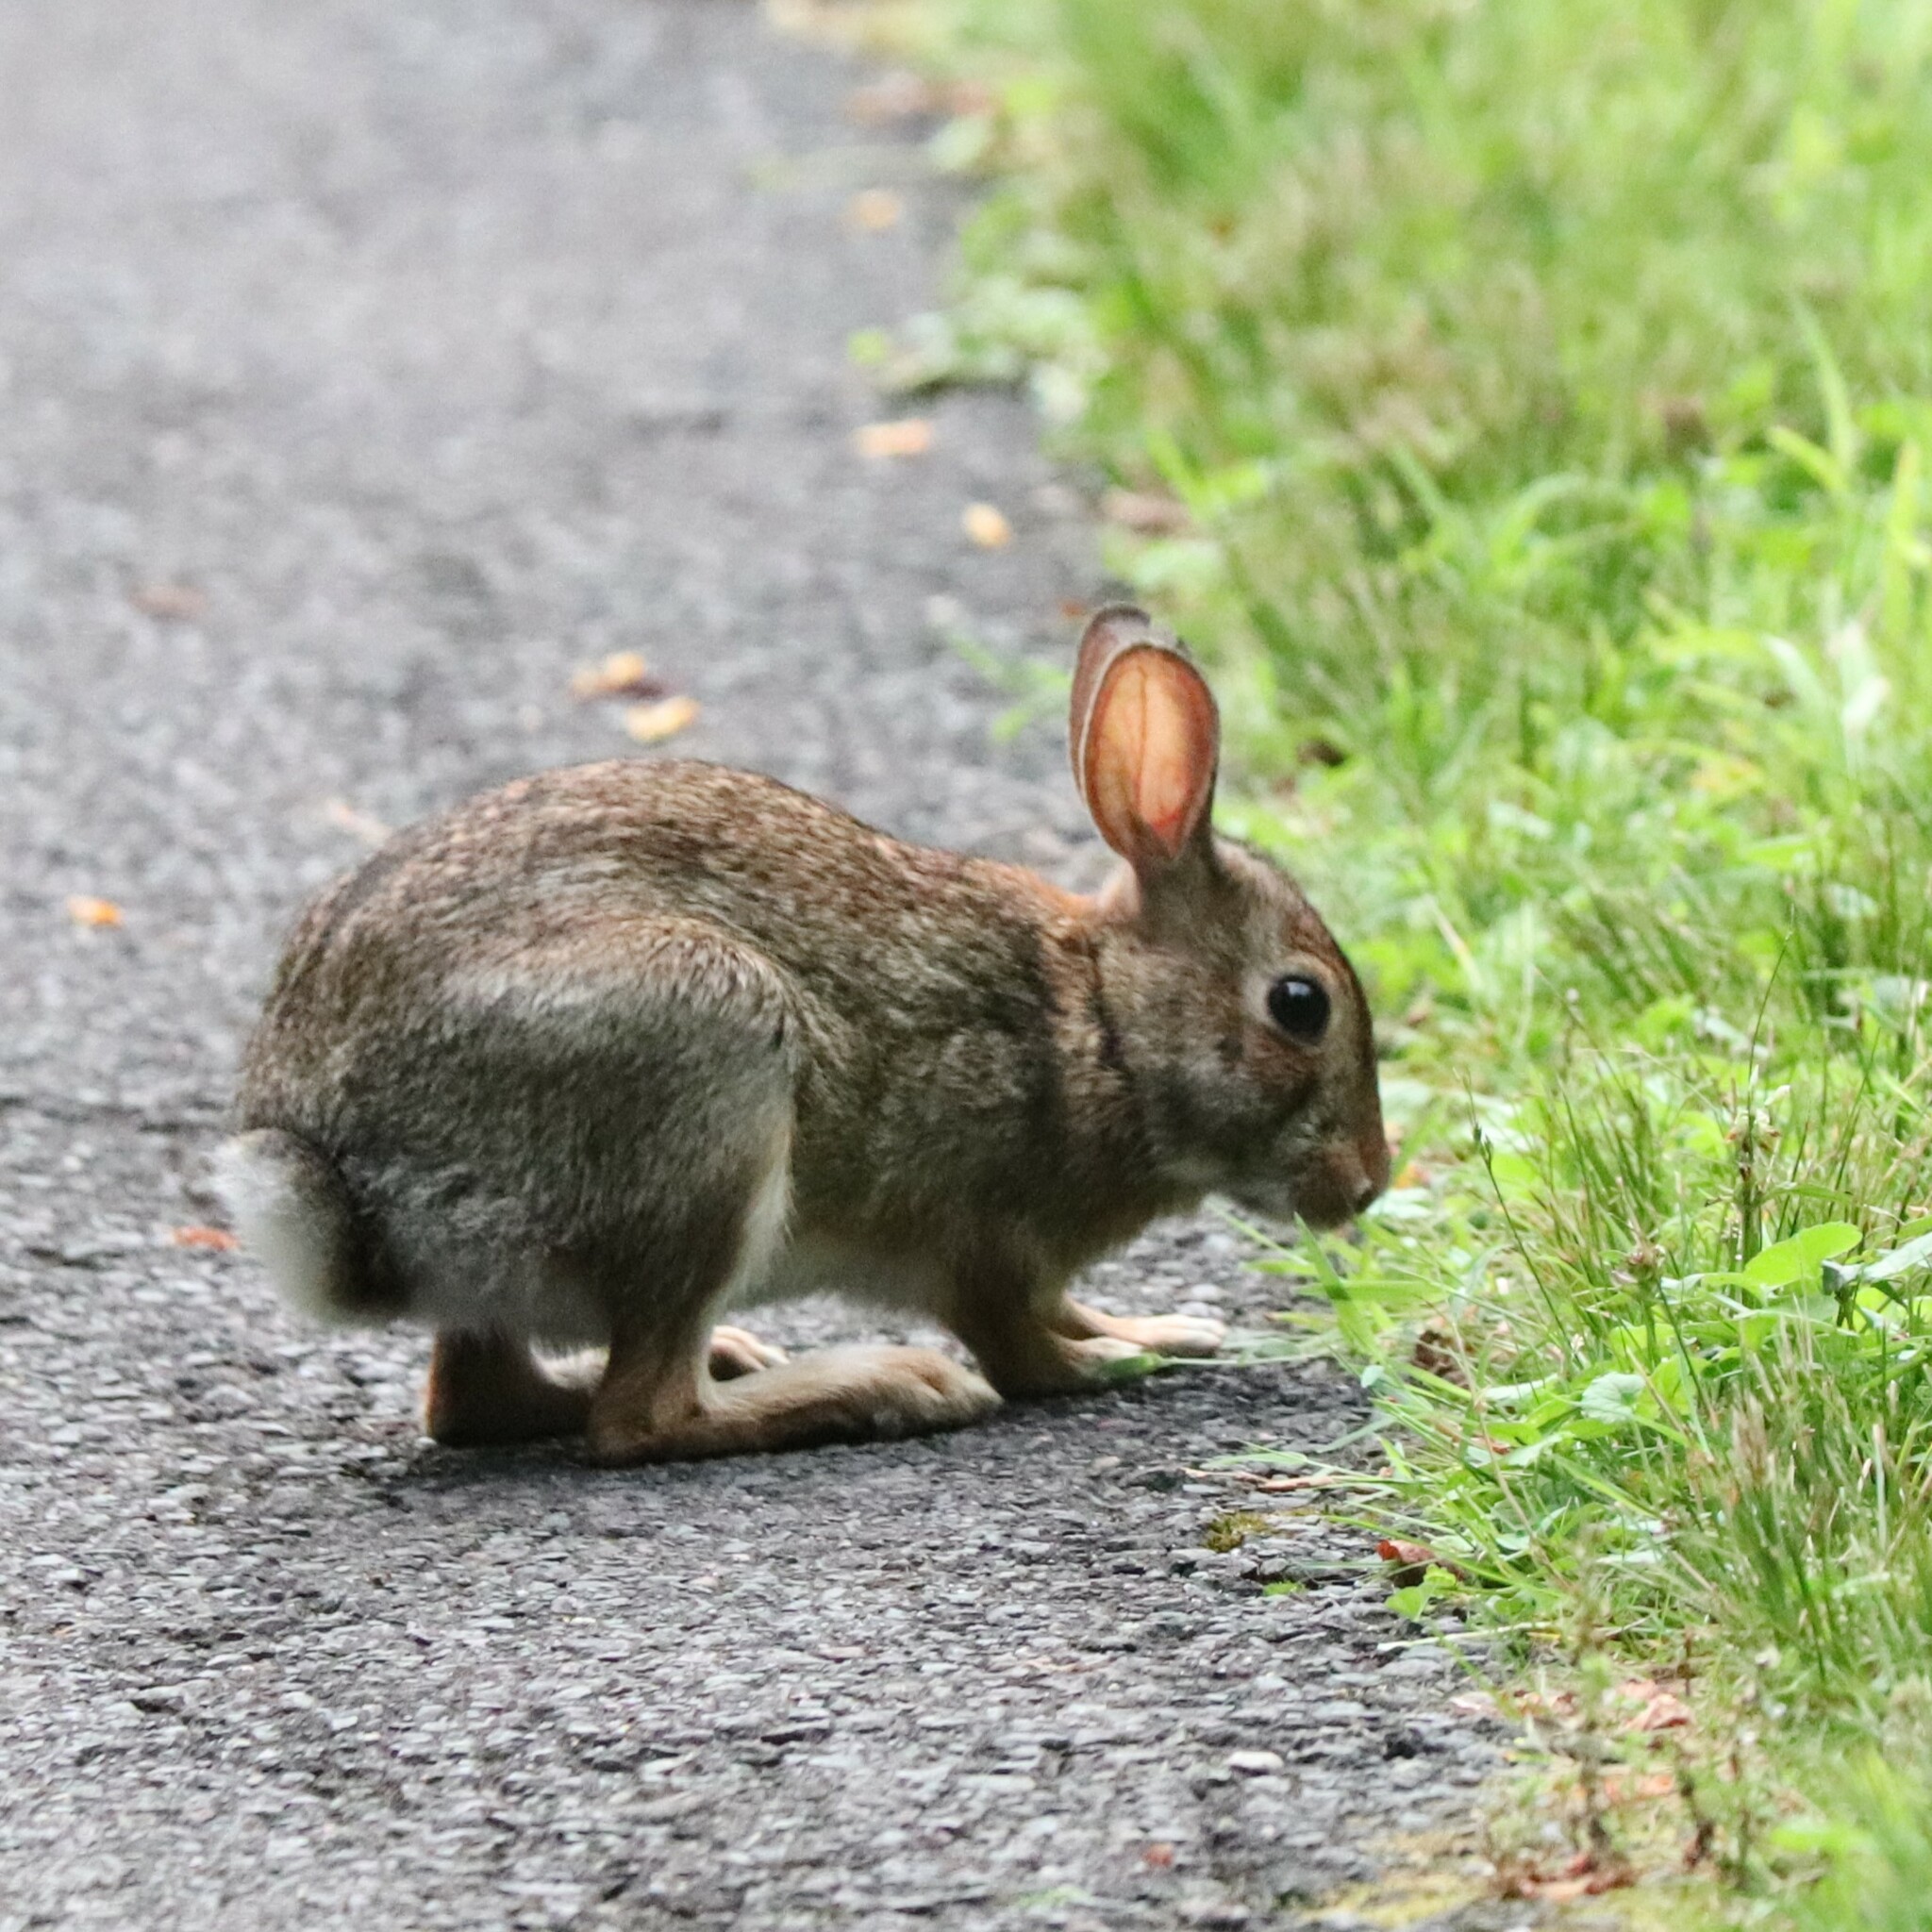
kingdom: Animalia
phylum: Chordata
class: Mammalia
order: Lagomorpha
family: Leporidae
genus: Sylvilagus
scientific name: Sylvilagus floridanus
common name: Eastern cottontail
